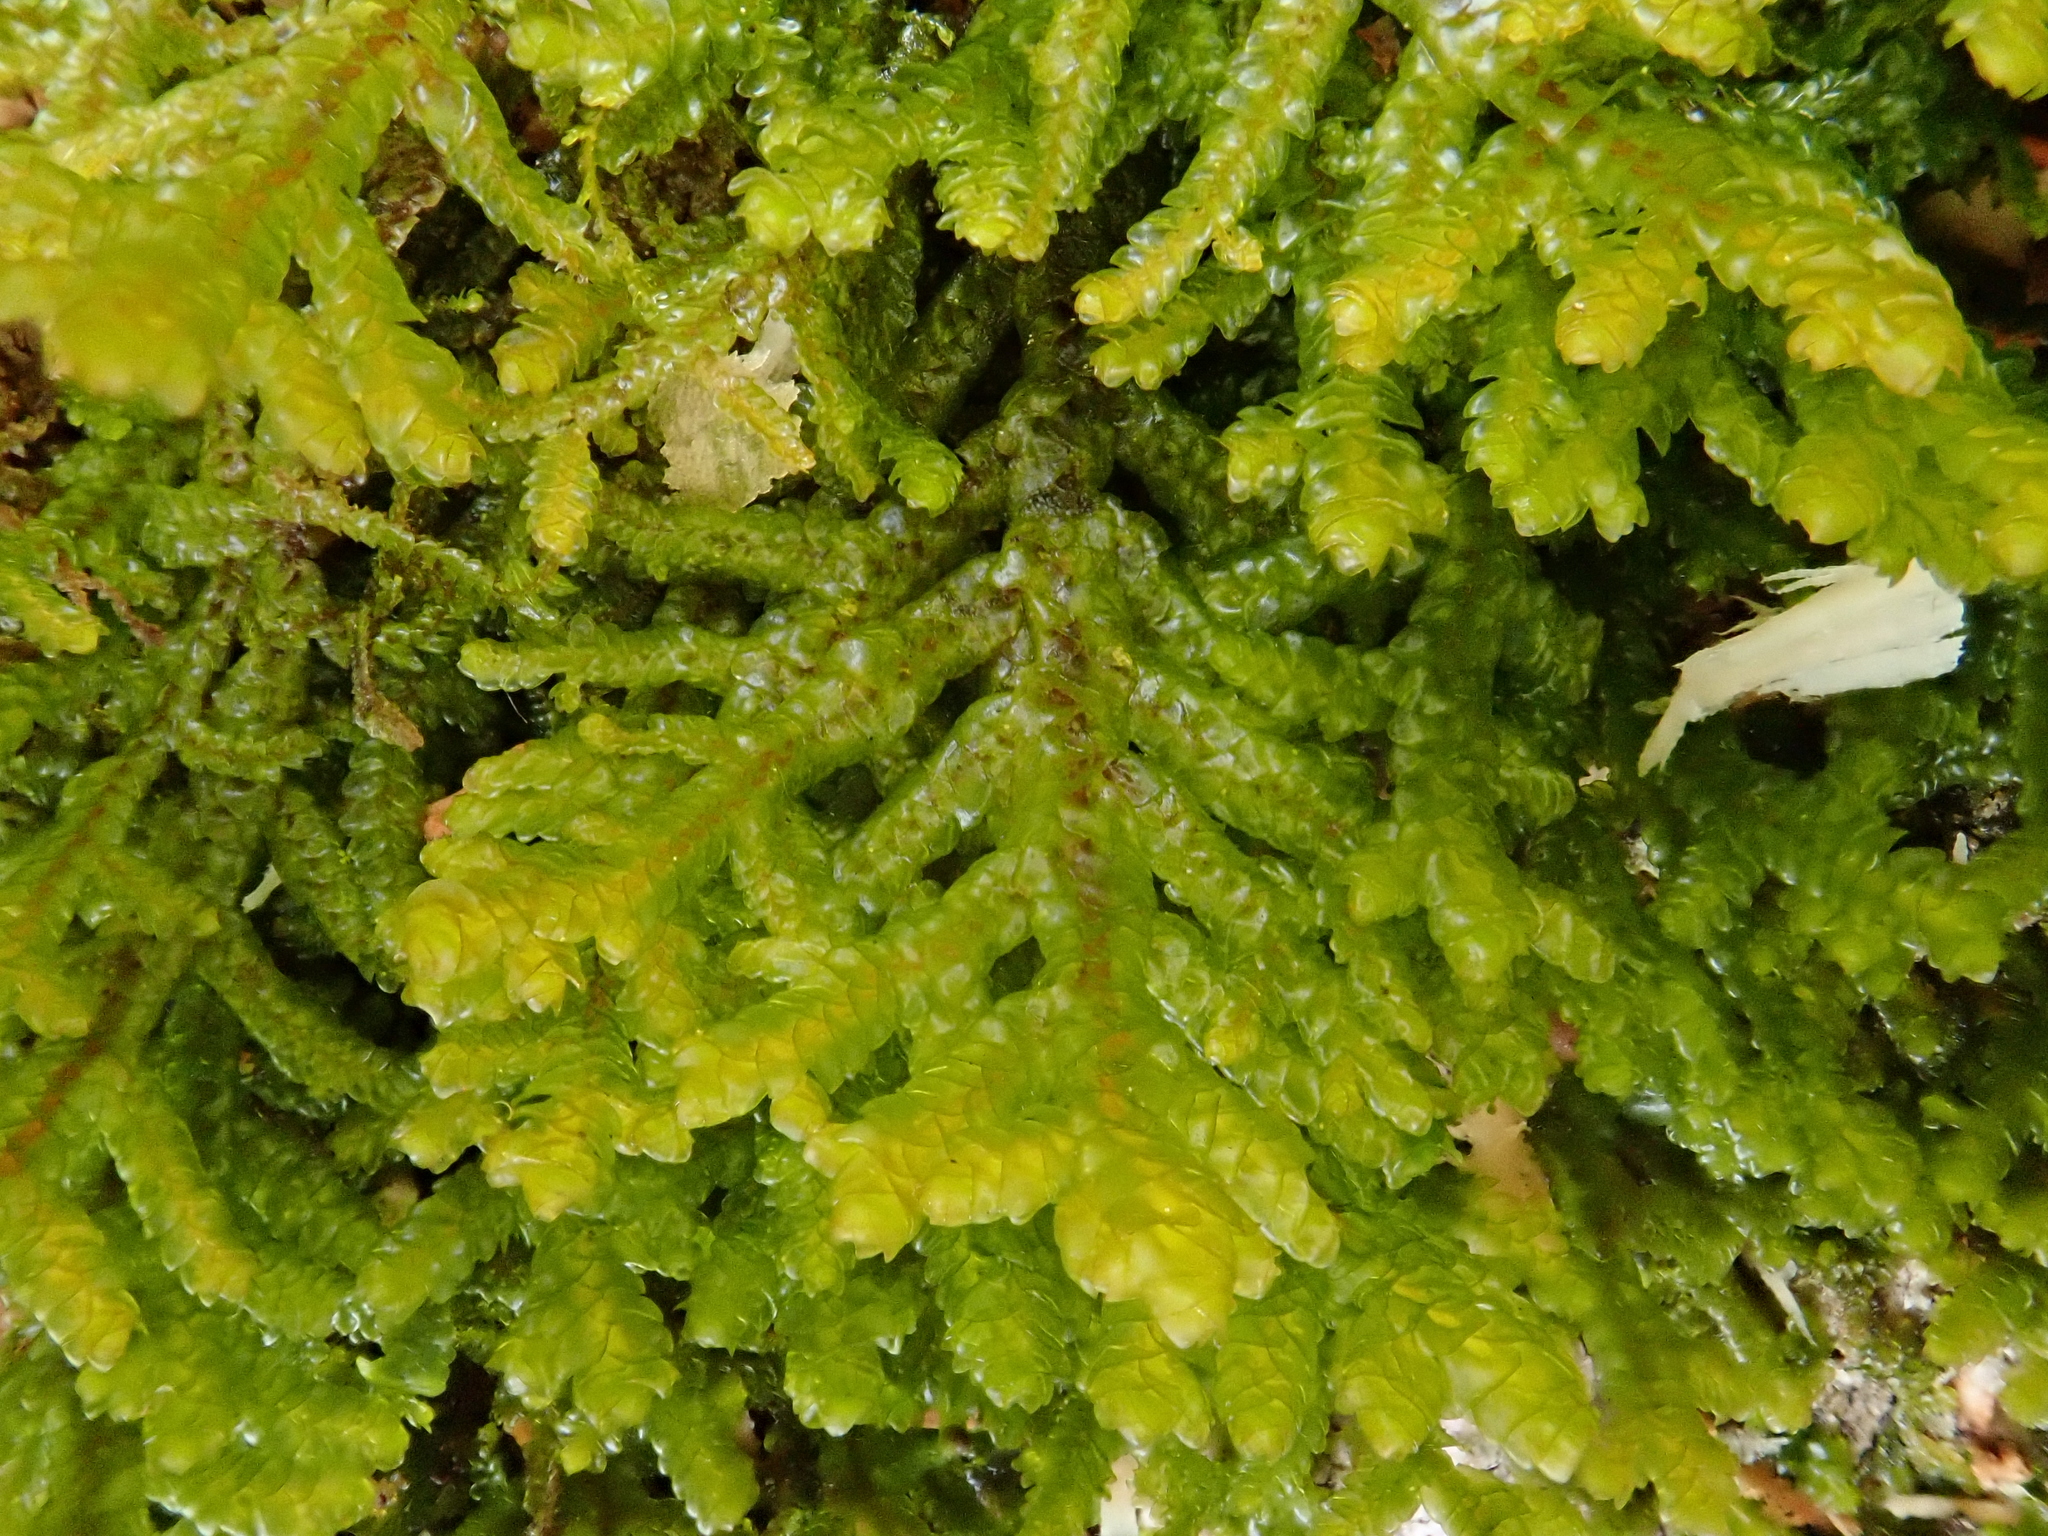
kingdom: Plantae
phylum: Marchantiophyta
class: Jungermanniopsida
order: Porellales
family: Porellaceae
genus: Porella
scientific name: Porella platyphylla
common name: Wall scalewort
